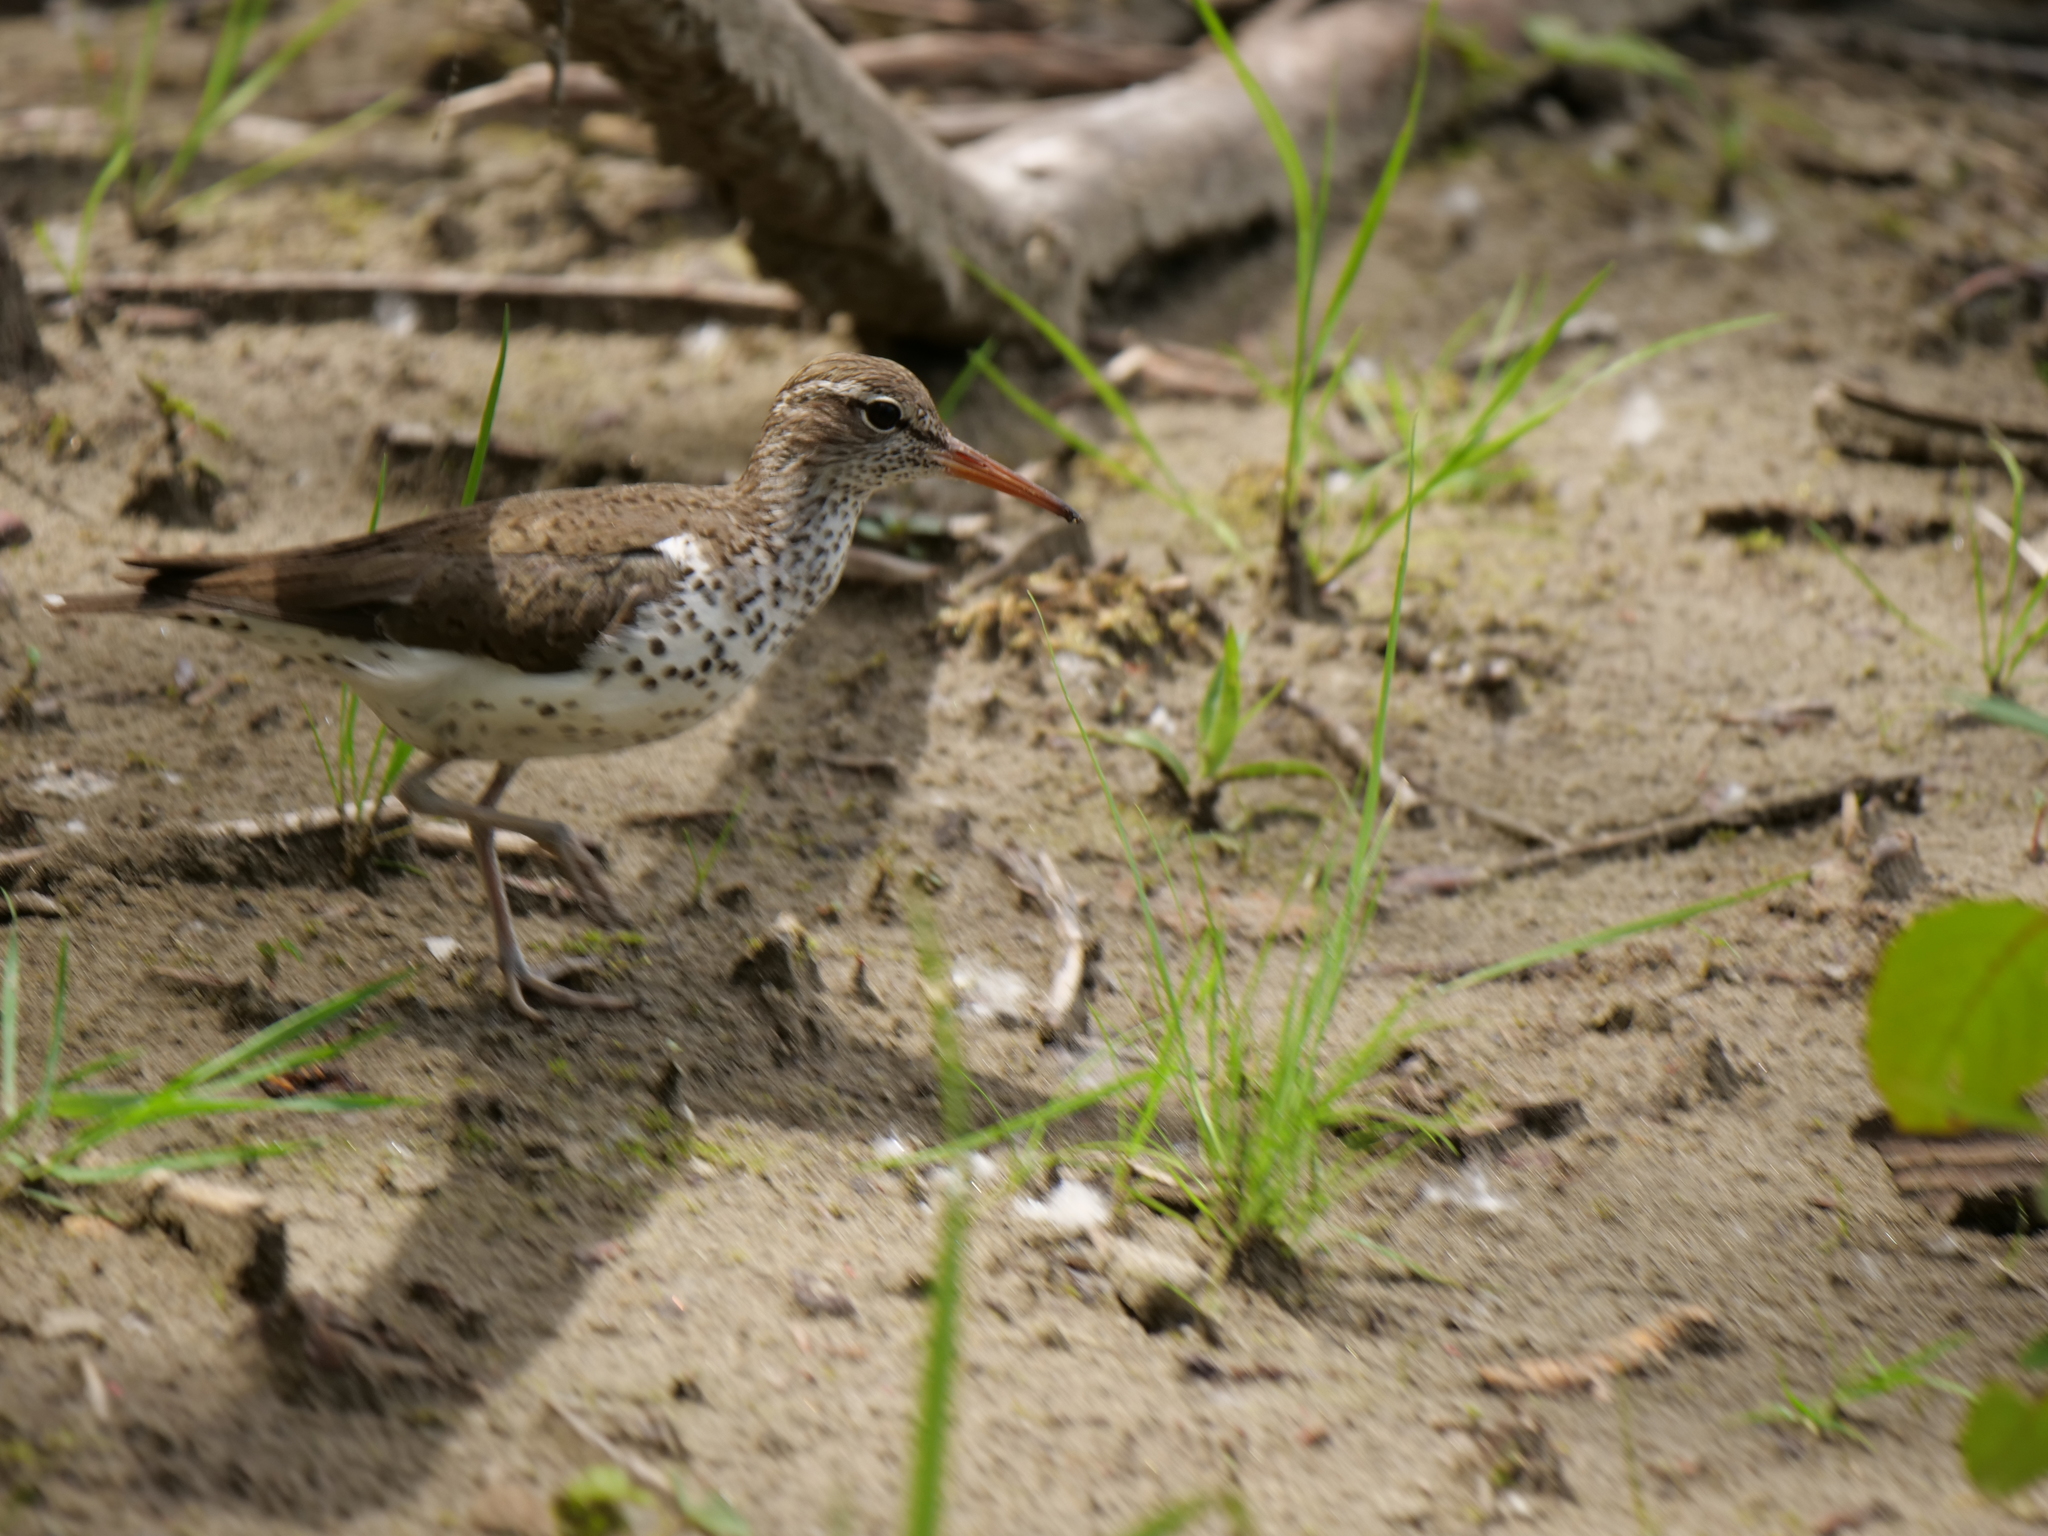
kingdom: Animalia
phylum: Chordata
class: Aves
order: Charadriiformes
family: Scolopacidae
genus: Actitis
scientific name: Actitis macularius
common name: Spotted sandpiper
